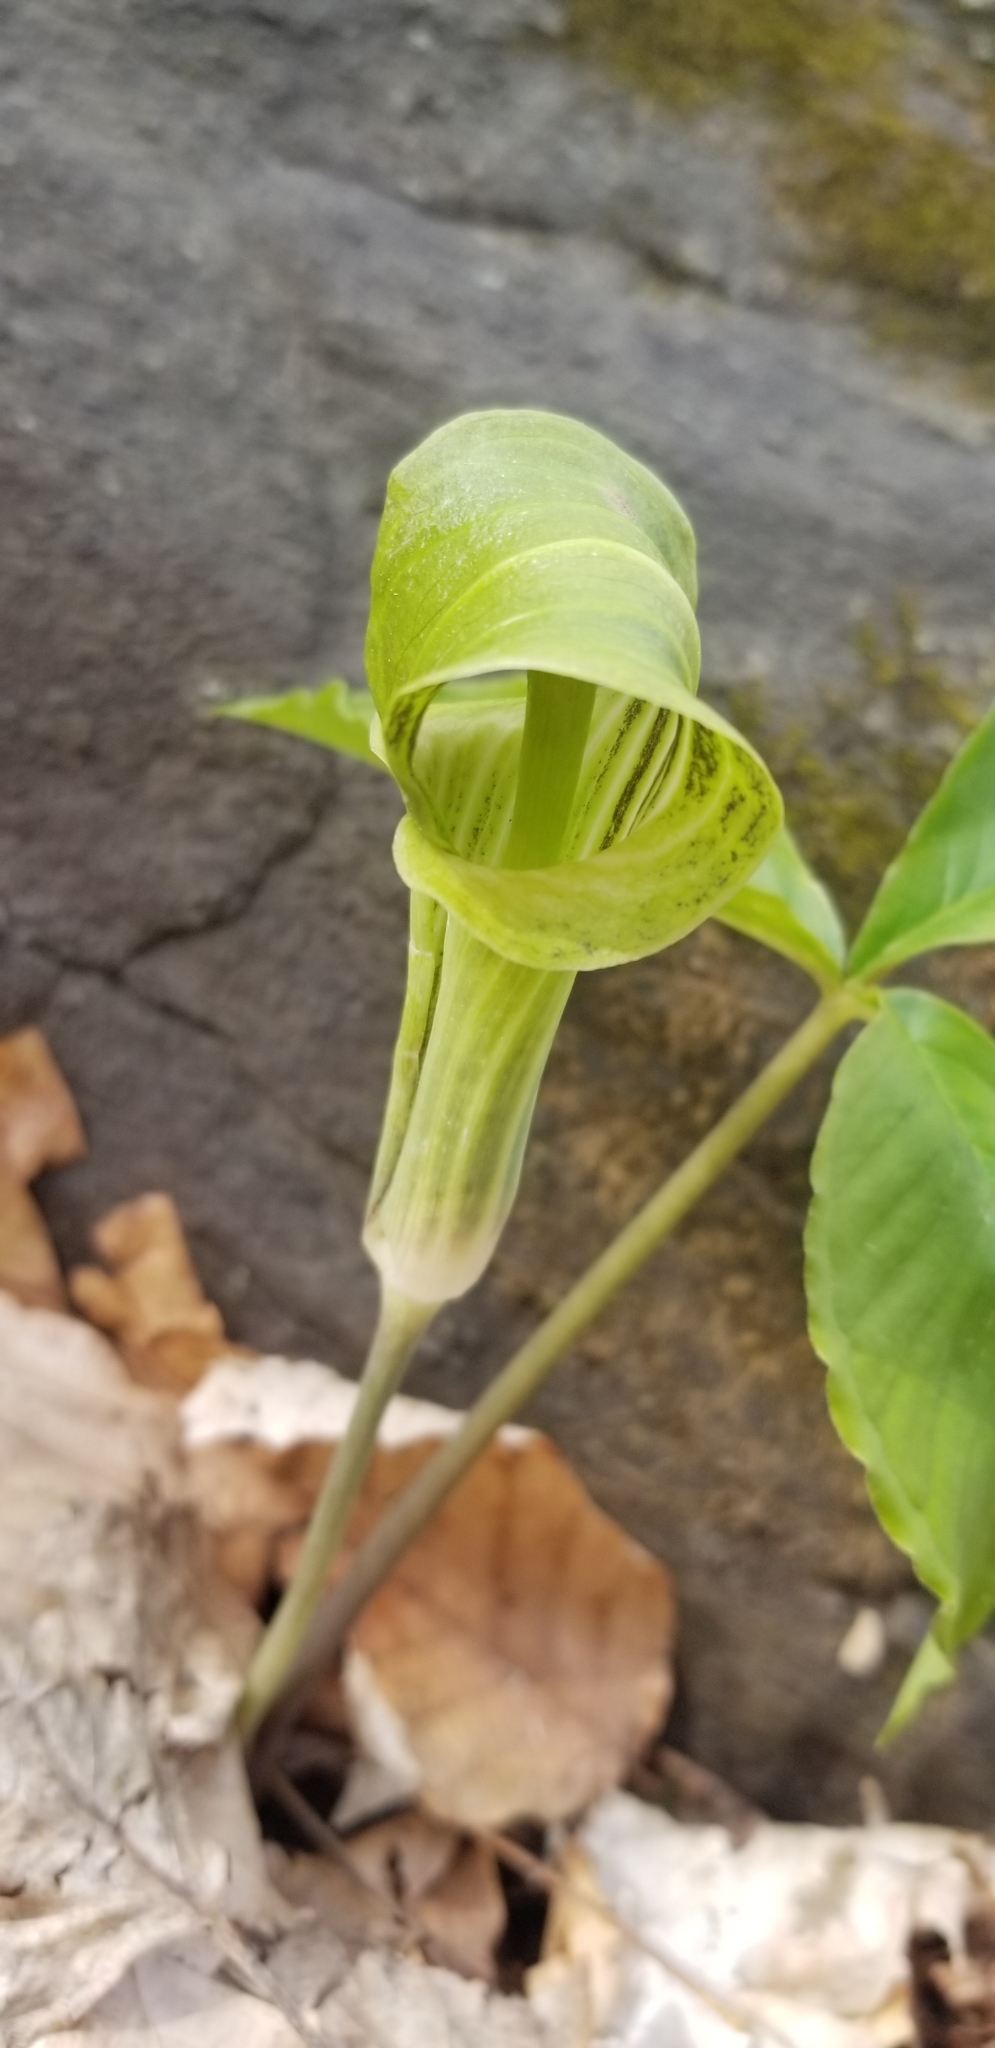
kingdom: Plantae
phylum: Tracheophyta
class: Liliopsida
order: Alismatales
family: Araceae
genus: Arisaema
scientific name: Arisaema triphyllum
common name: Jack-in-the-pulpit
